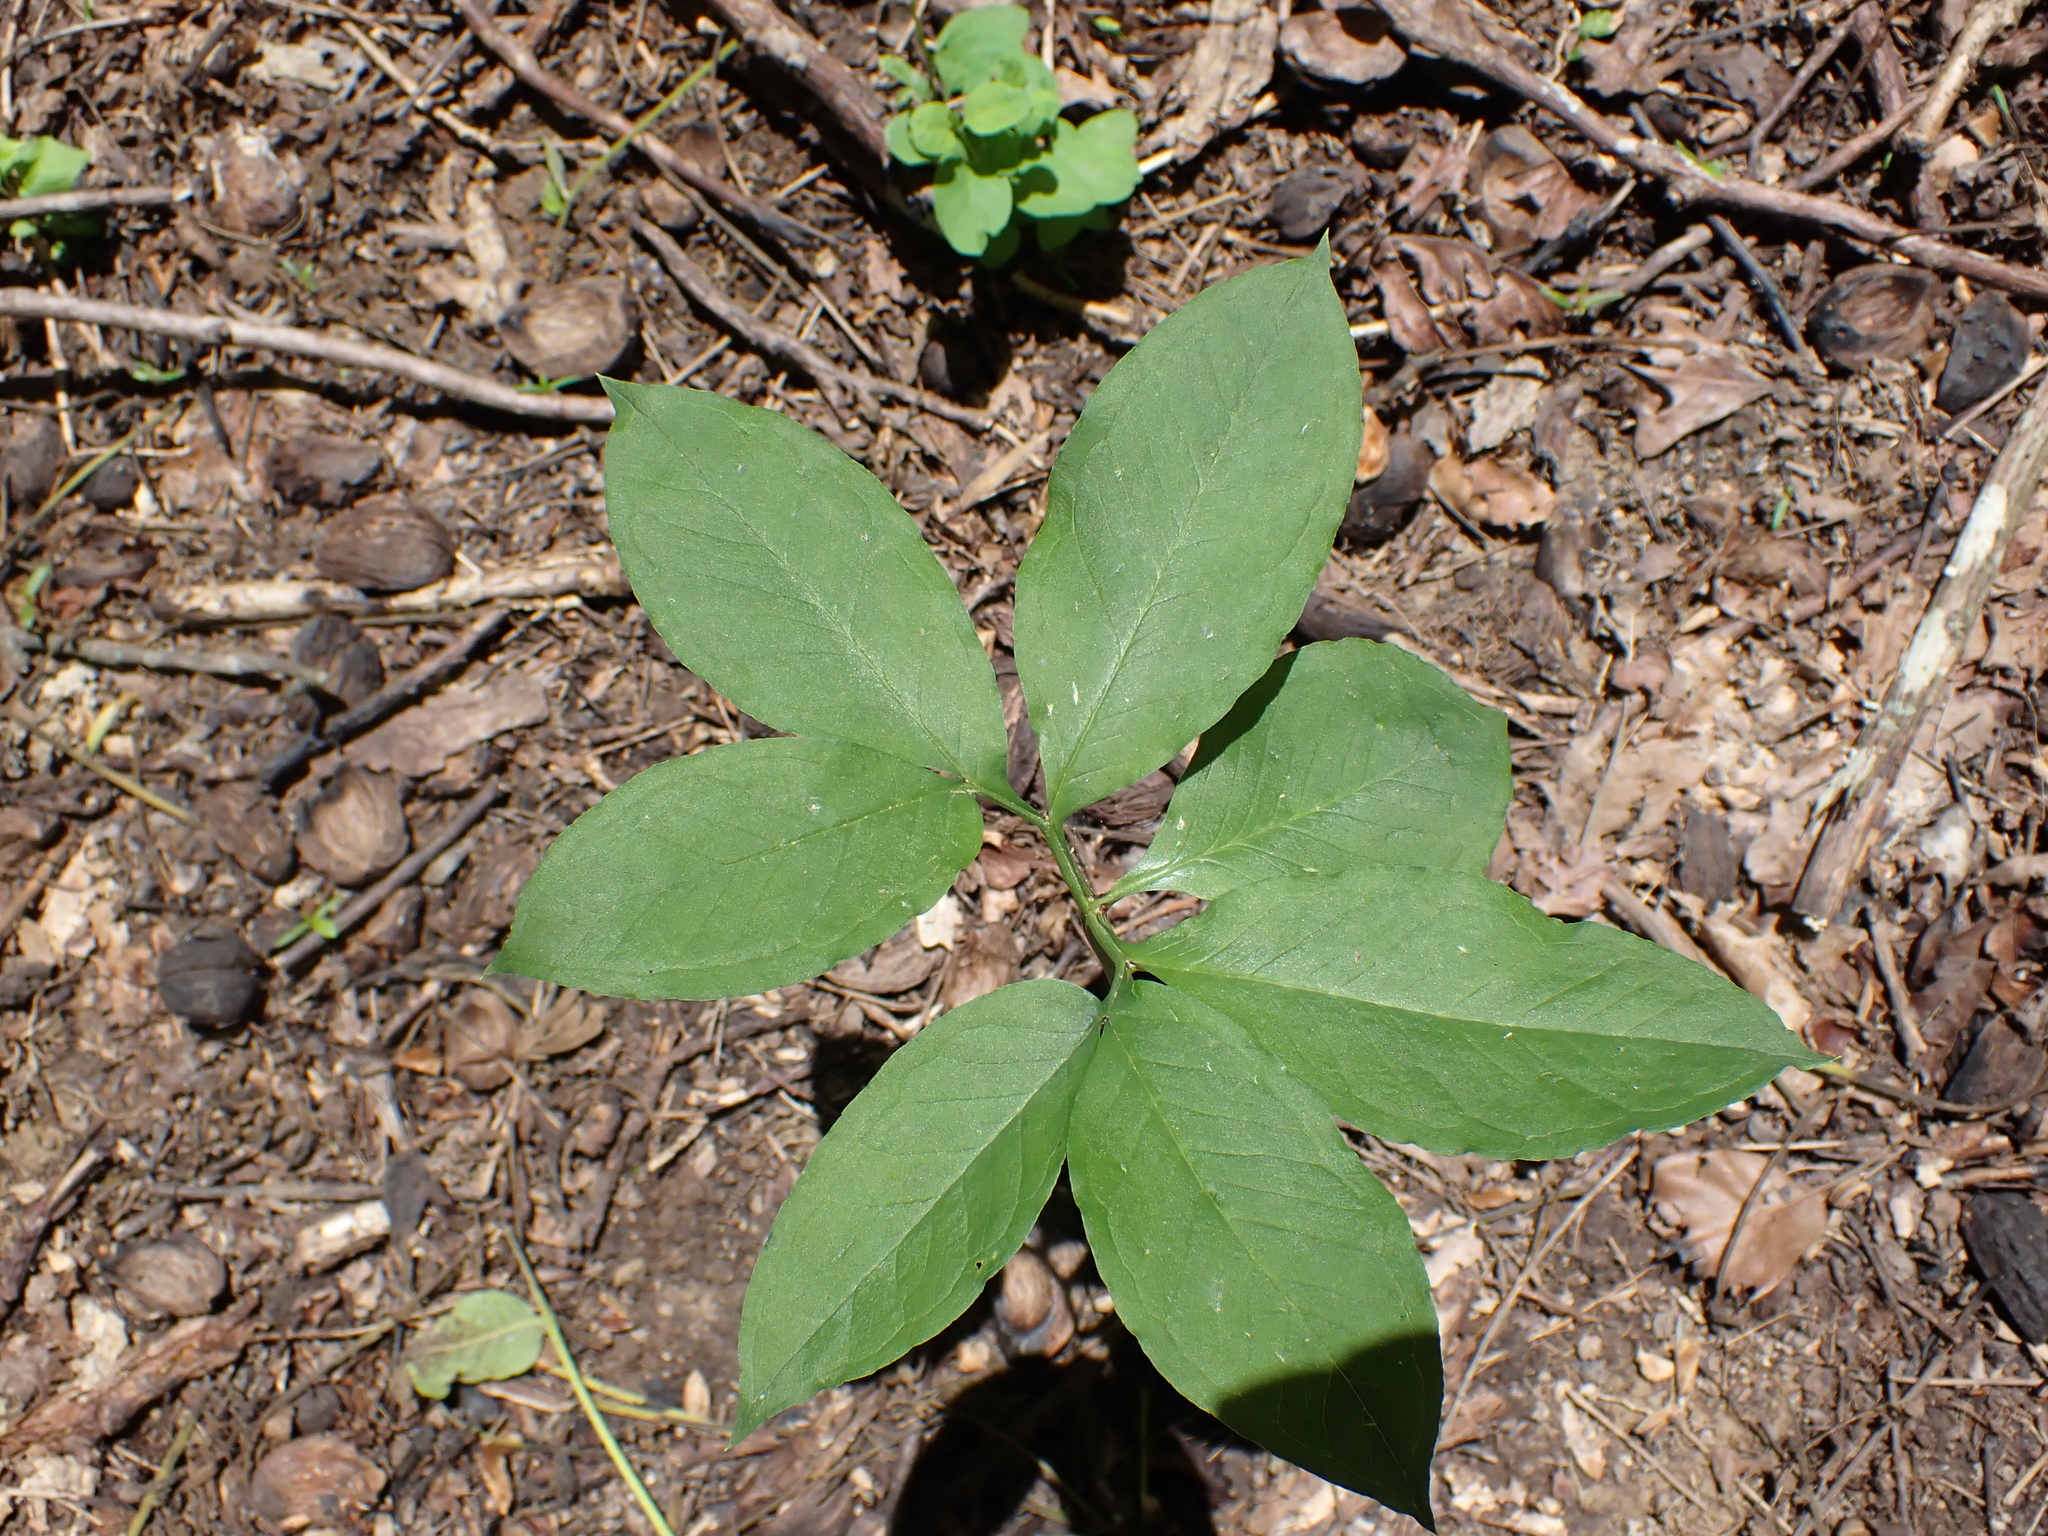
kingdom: Plantae
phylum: Tracheophyta
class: Liliopsida
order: Alismatales
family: Araceae
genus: Arisaema
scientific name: Arisaema dracontium
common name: Dragon-arum
